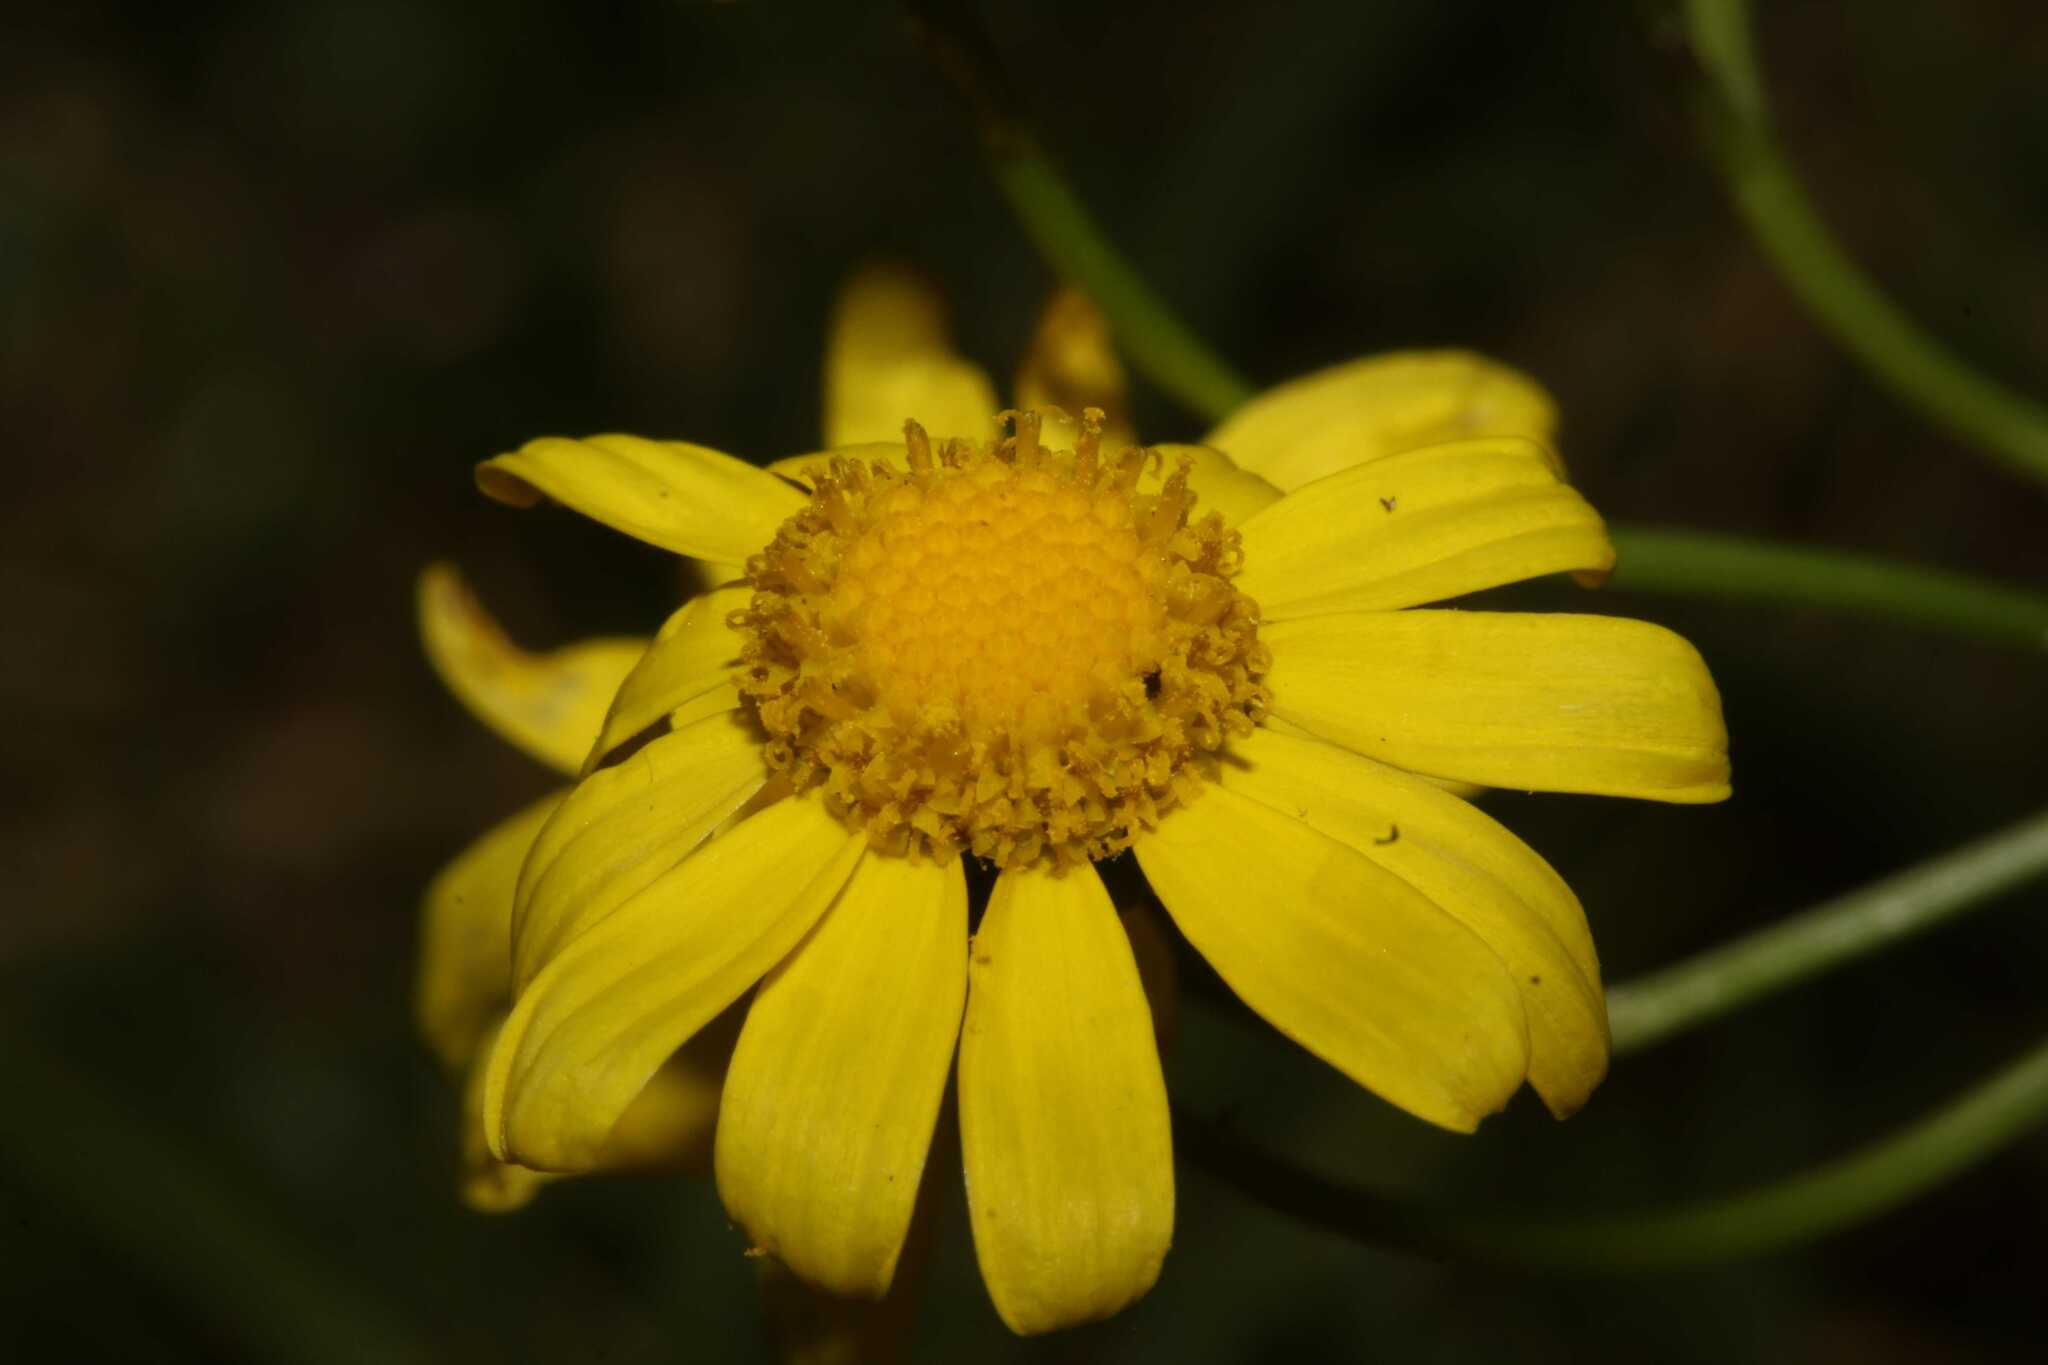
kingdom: Plantae
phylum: Tracheophyta
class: Magnoliopsida
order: Asterales
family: Asteraceae
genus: Senecio
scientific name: Senecio inaequidens
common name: Narrow-leaved ragwort
